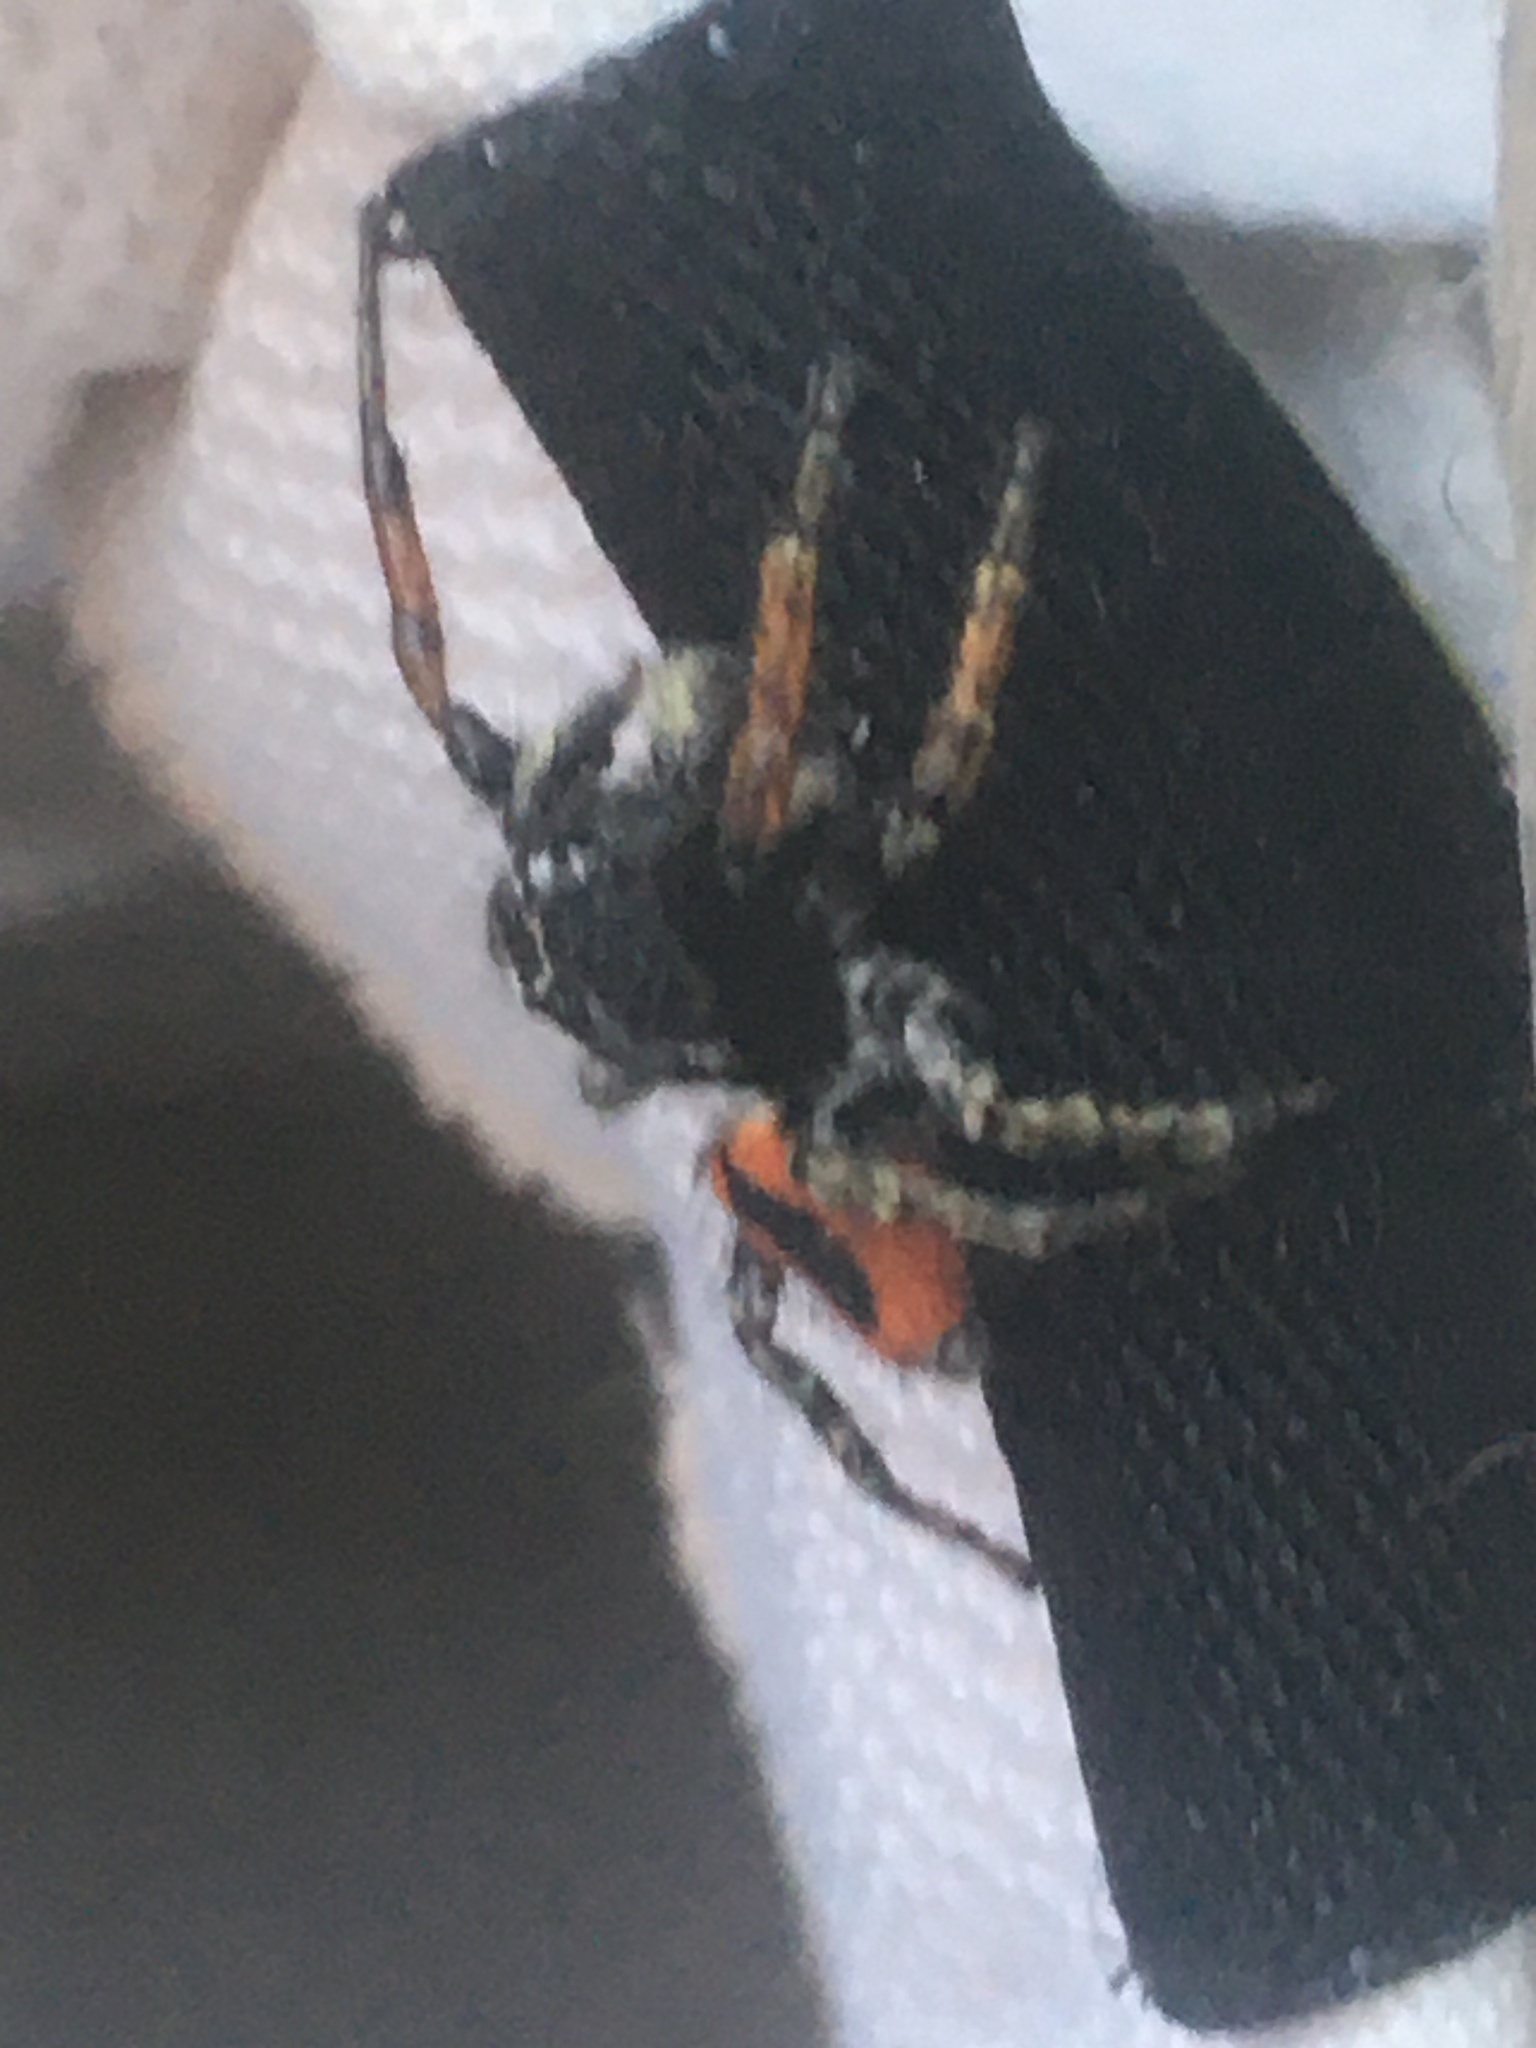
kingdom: Animalia
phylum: Arthropoda
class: Arachnida
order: Araneae
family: Salticidae
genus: Philaeus
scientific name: Philaeus chrysops
